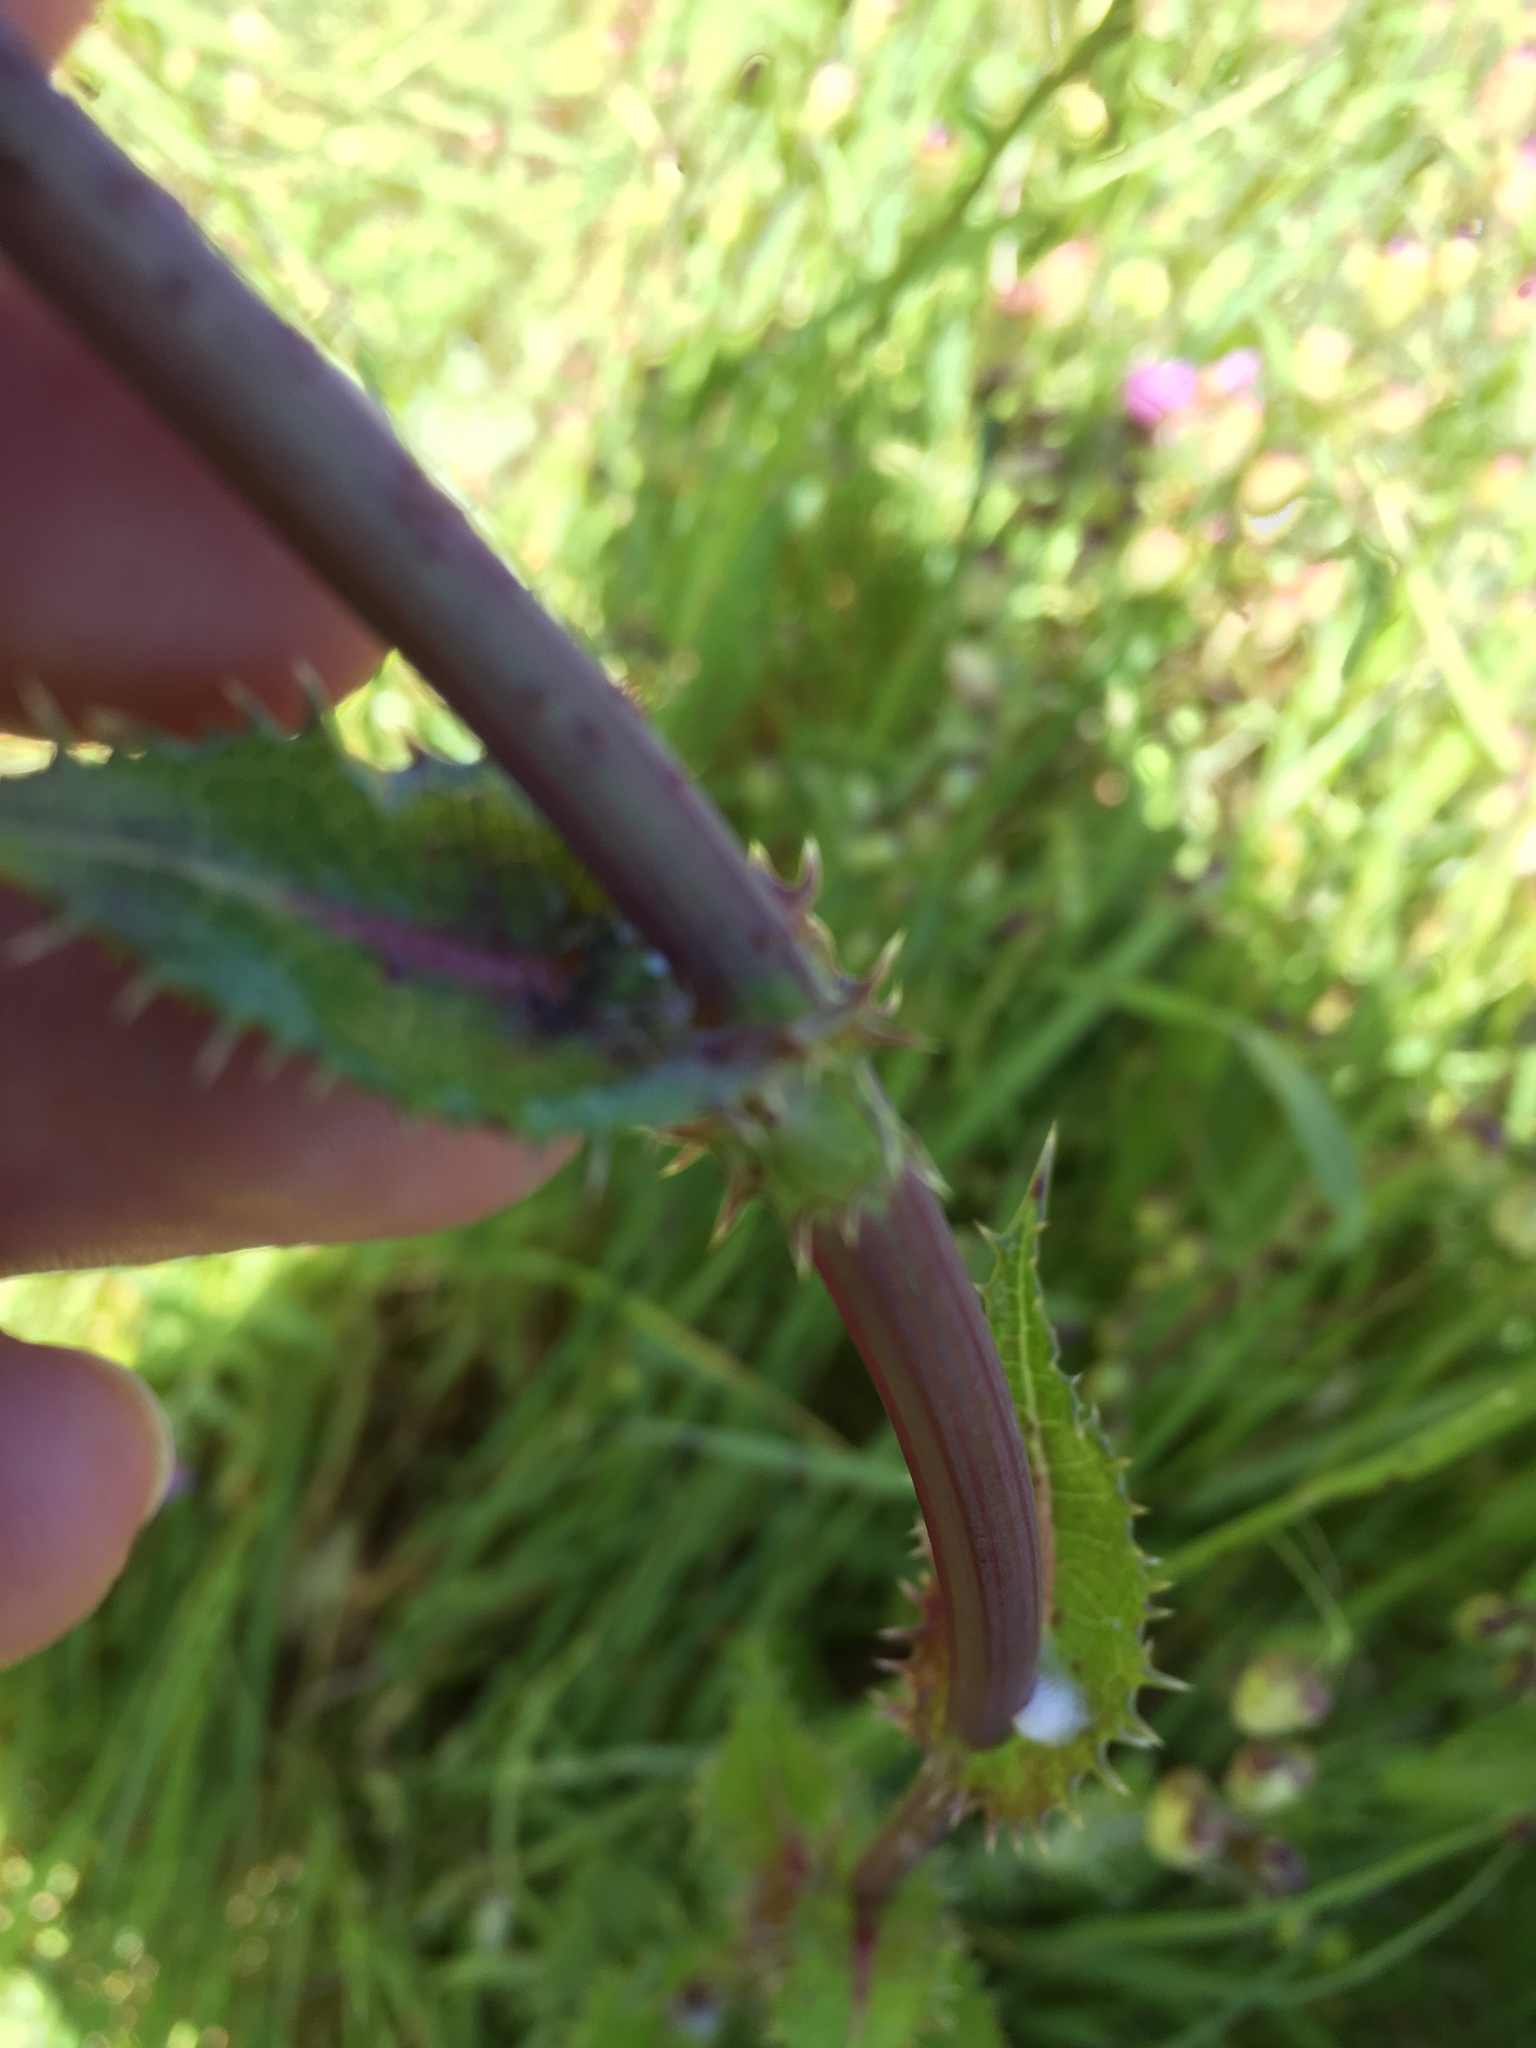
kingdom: Plantae
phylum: Tracheophyta
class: Magnoliopsida
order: Asterales
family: Asteraceae
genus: Sonchus
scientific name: Sonchus asper
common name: Prickly sow-thistle
